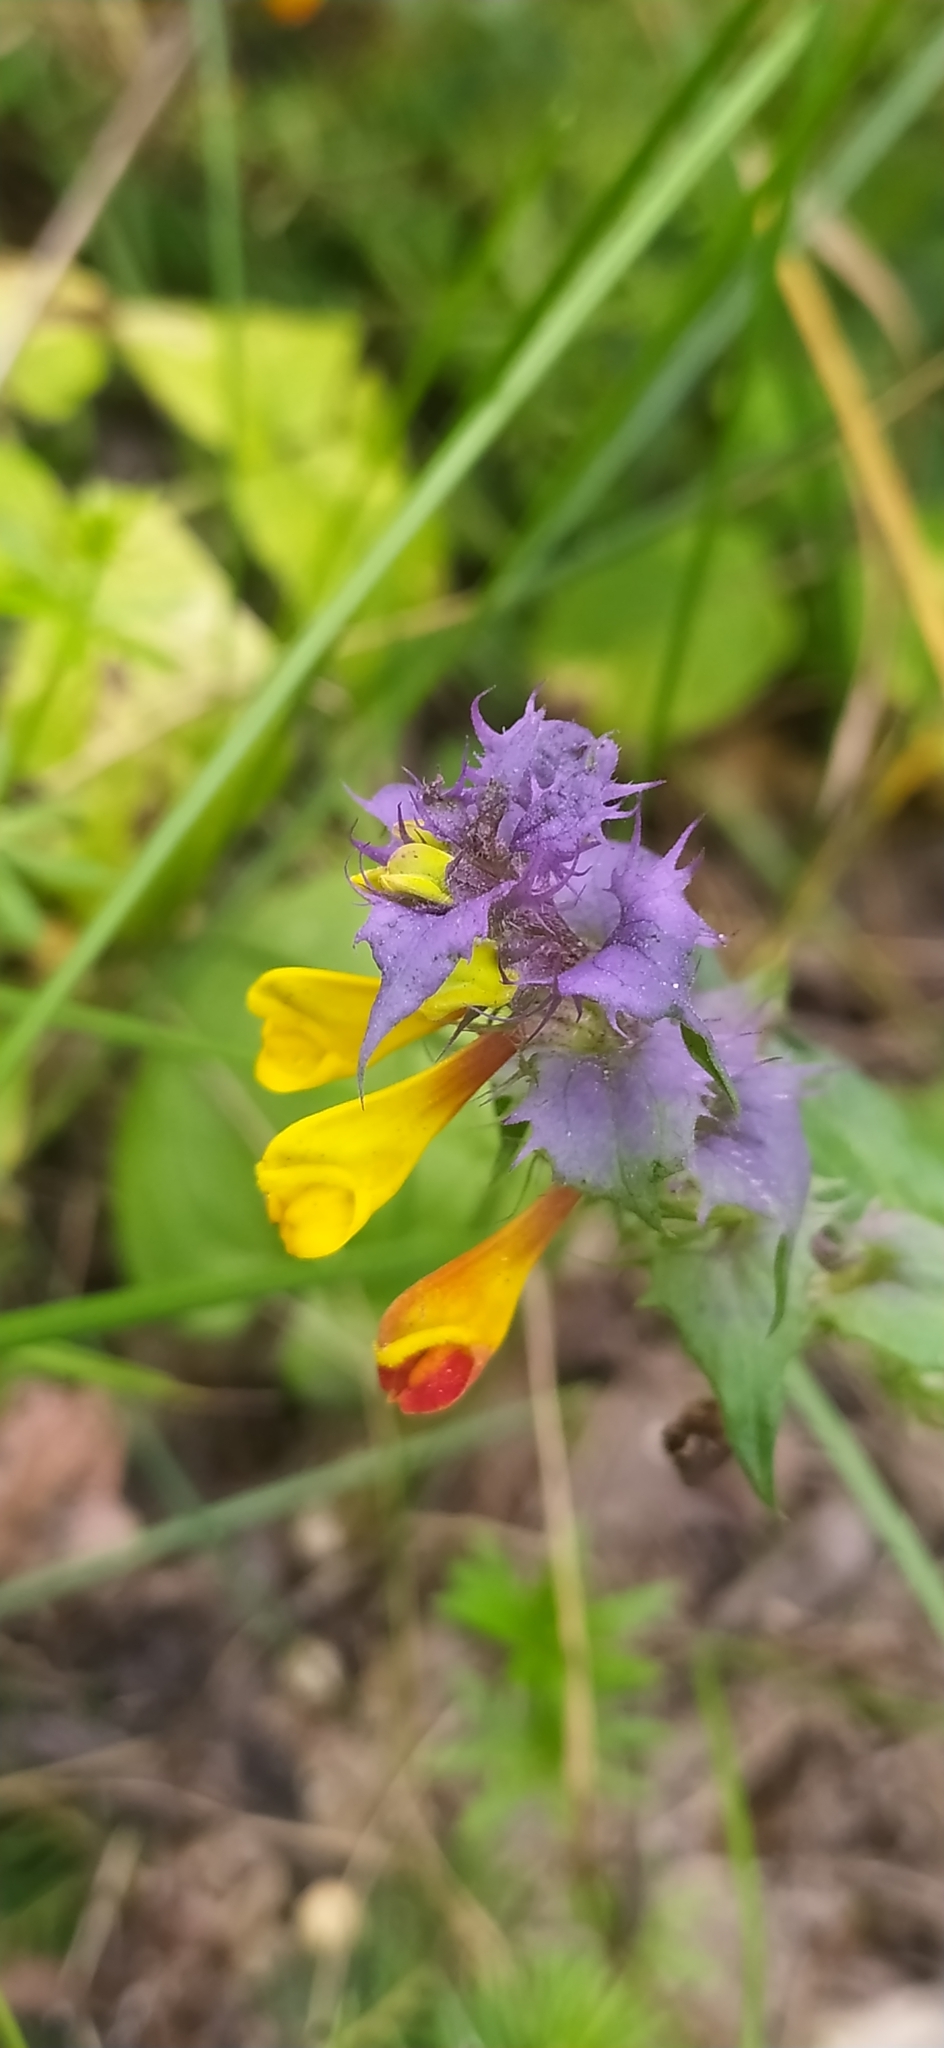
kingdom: Plantae
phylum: Tracheophyta
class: Magnoliopsida
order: Lamiales
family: Orobanchaceae
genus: Melampyrum
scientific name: Melampyrum nemorosum
